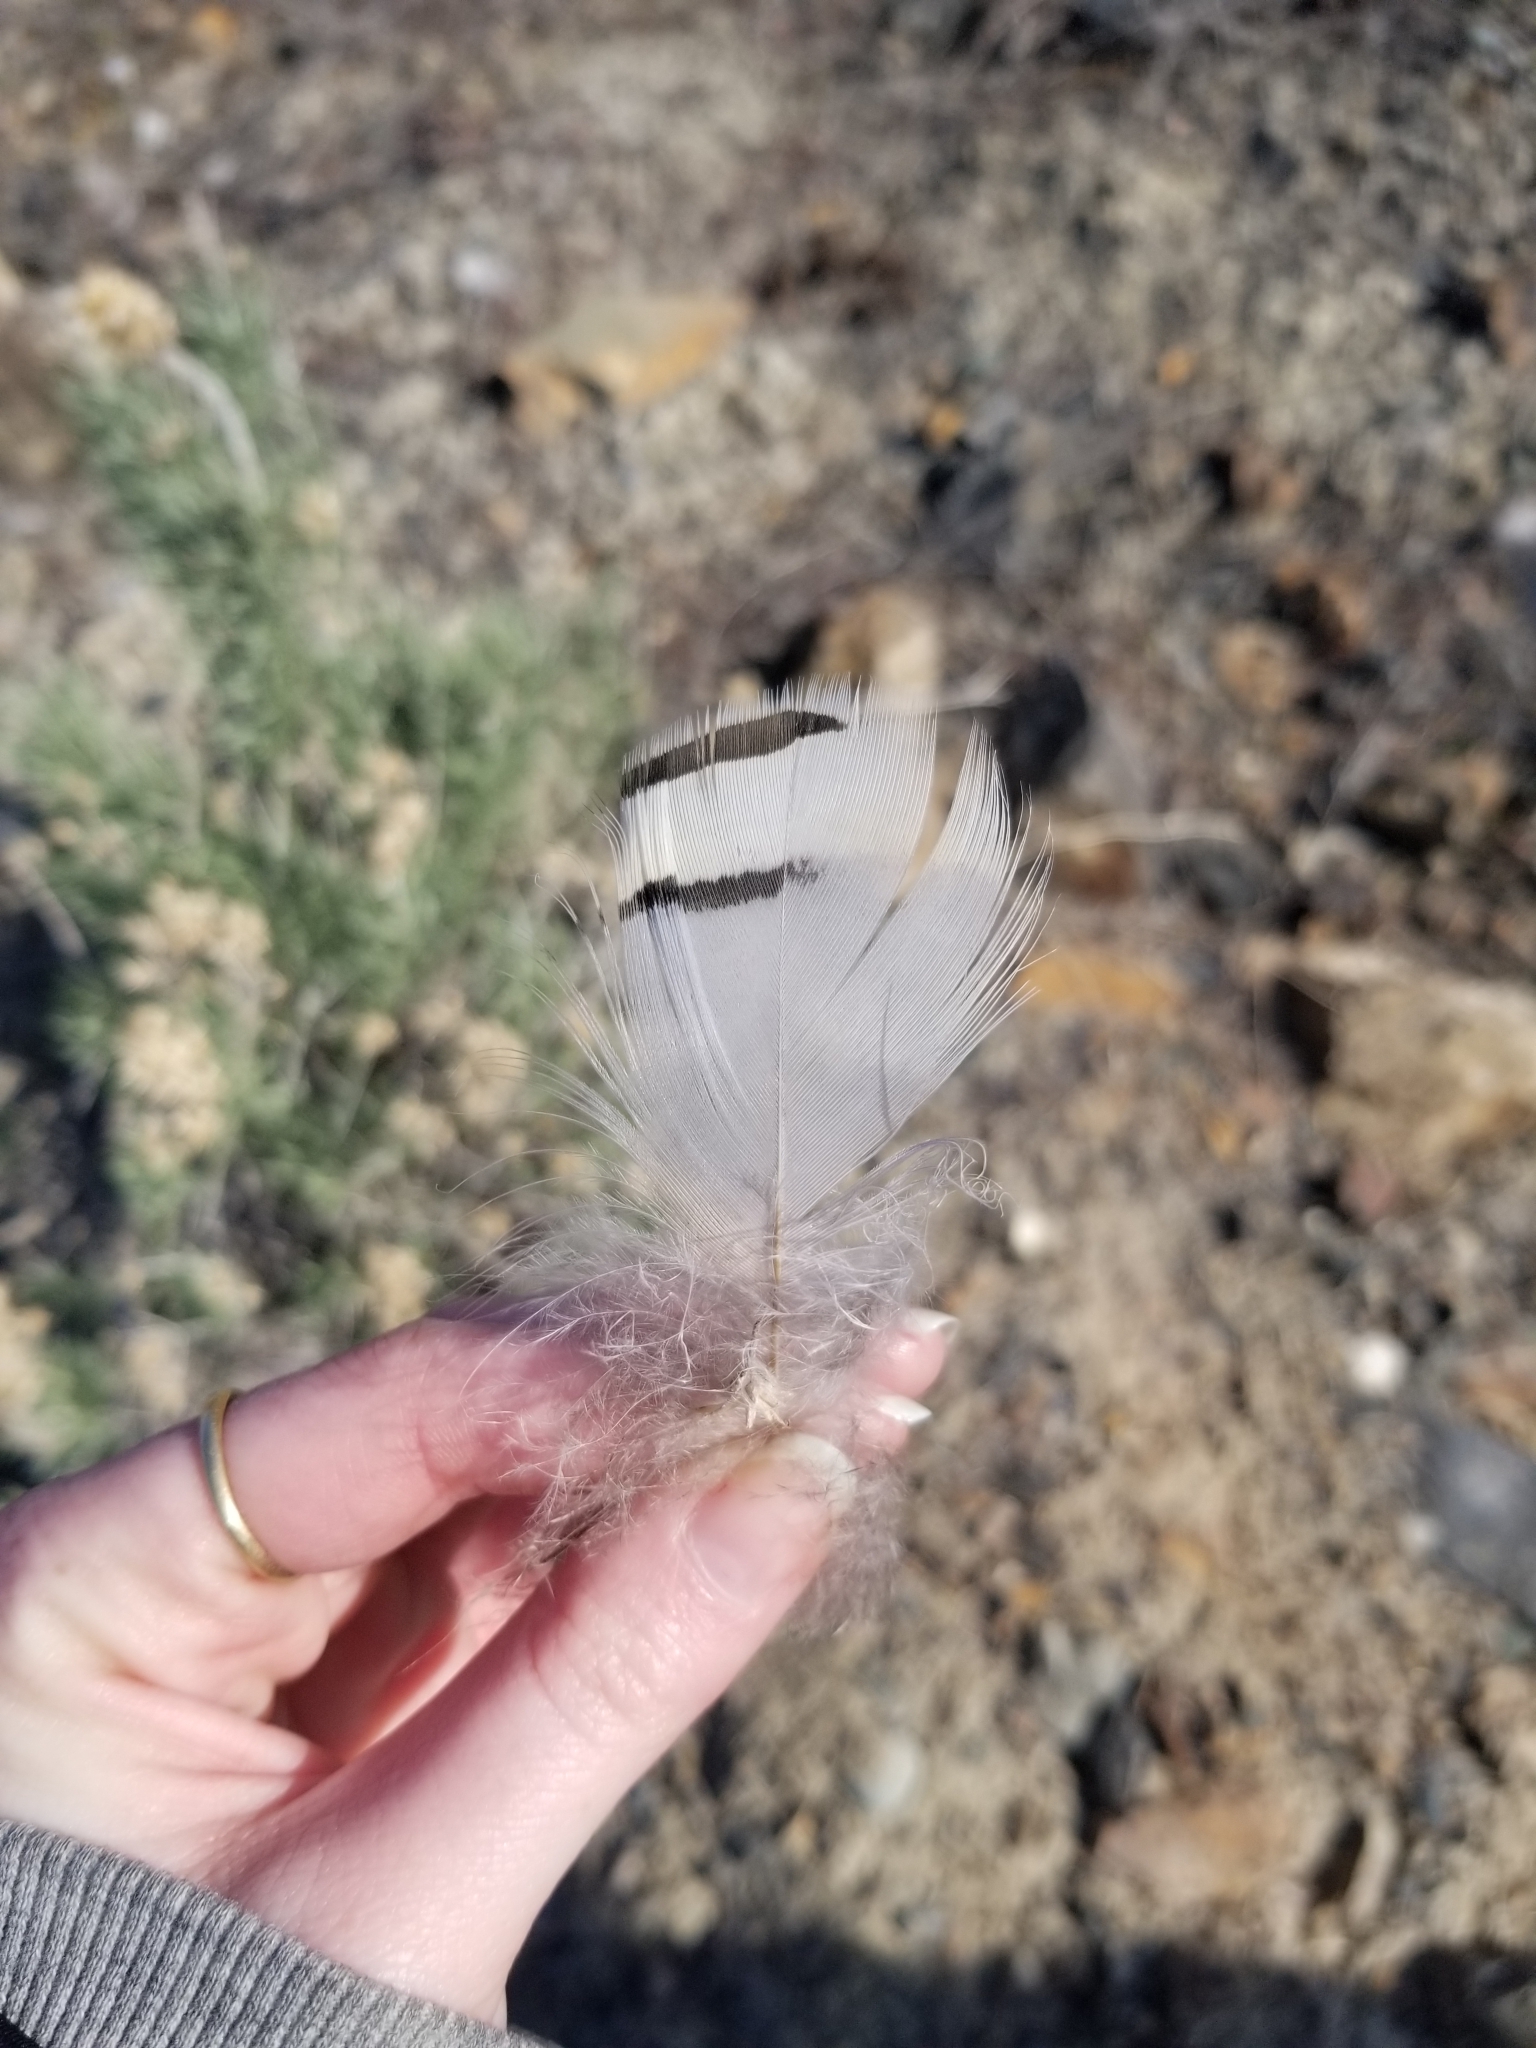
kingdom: Animalia
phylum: Chordata
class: Aves
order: Galliformes
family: Phasianidae
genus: Alectoris
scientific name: Alectoris chukar
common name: Chukar
